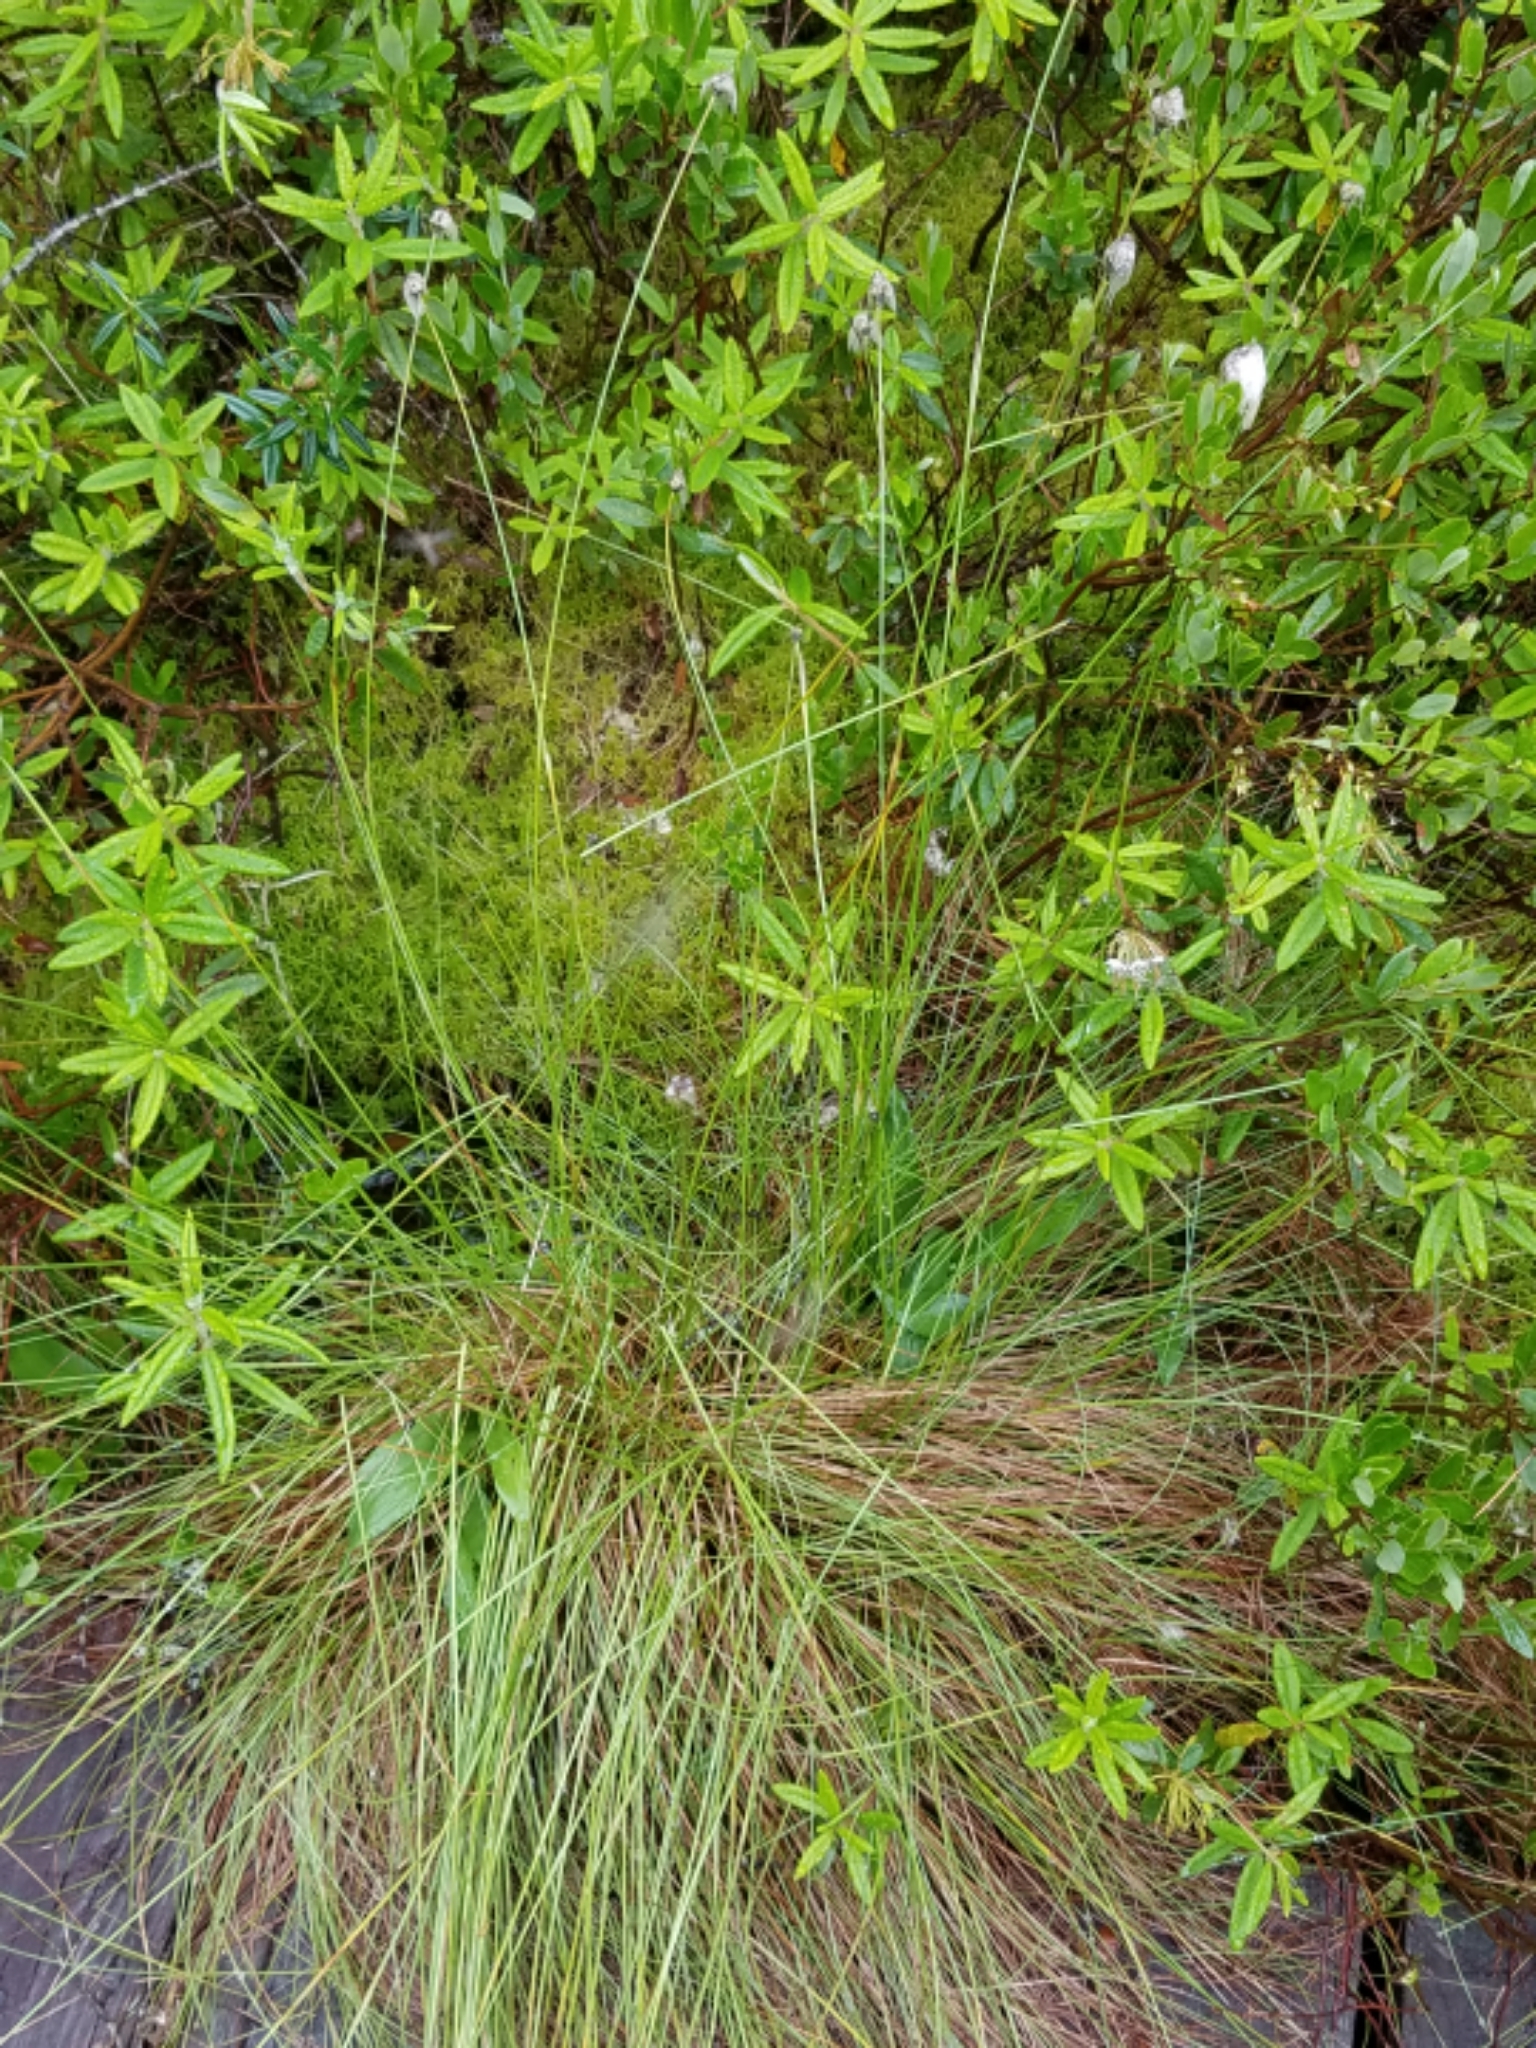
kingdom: Plantae
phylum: Tracheophyta
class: Liliopsida
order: Poales
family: Cyperaceae
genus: Eriophorum
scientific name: Eriophorum vaginatum
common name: Hare's-tail cottongrass
